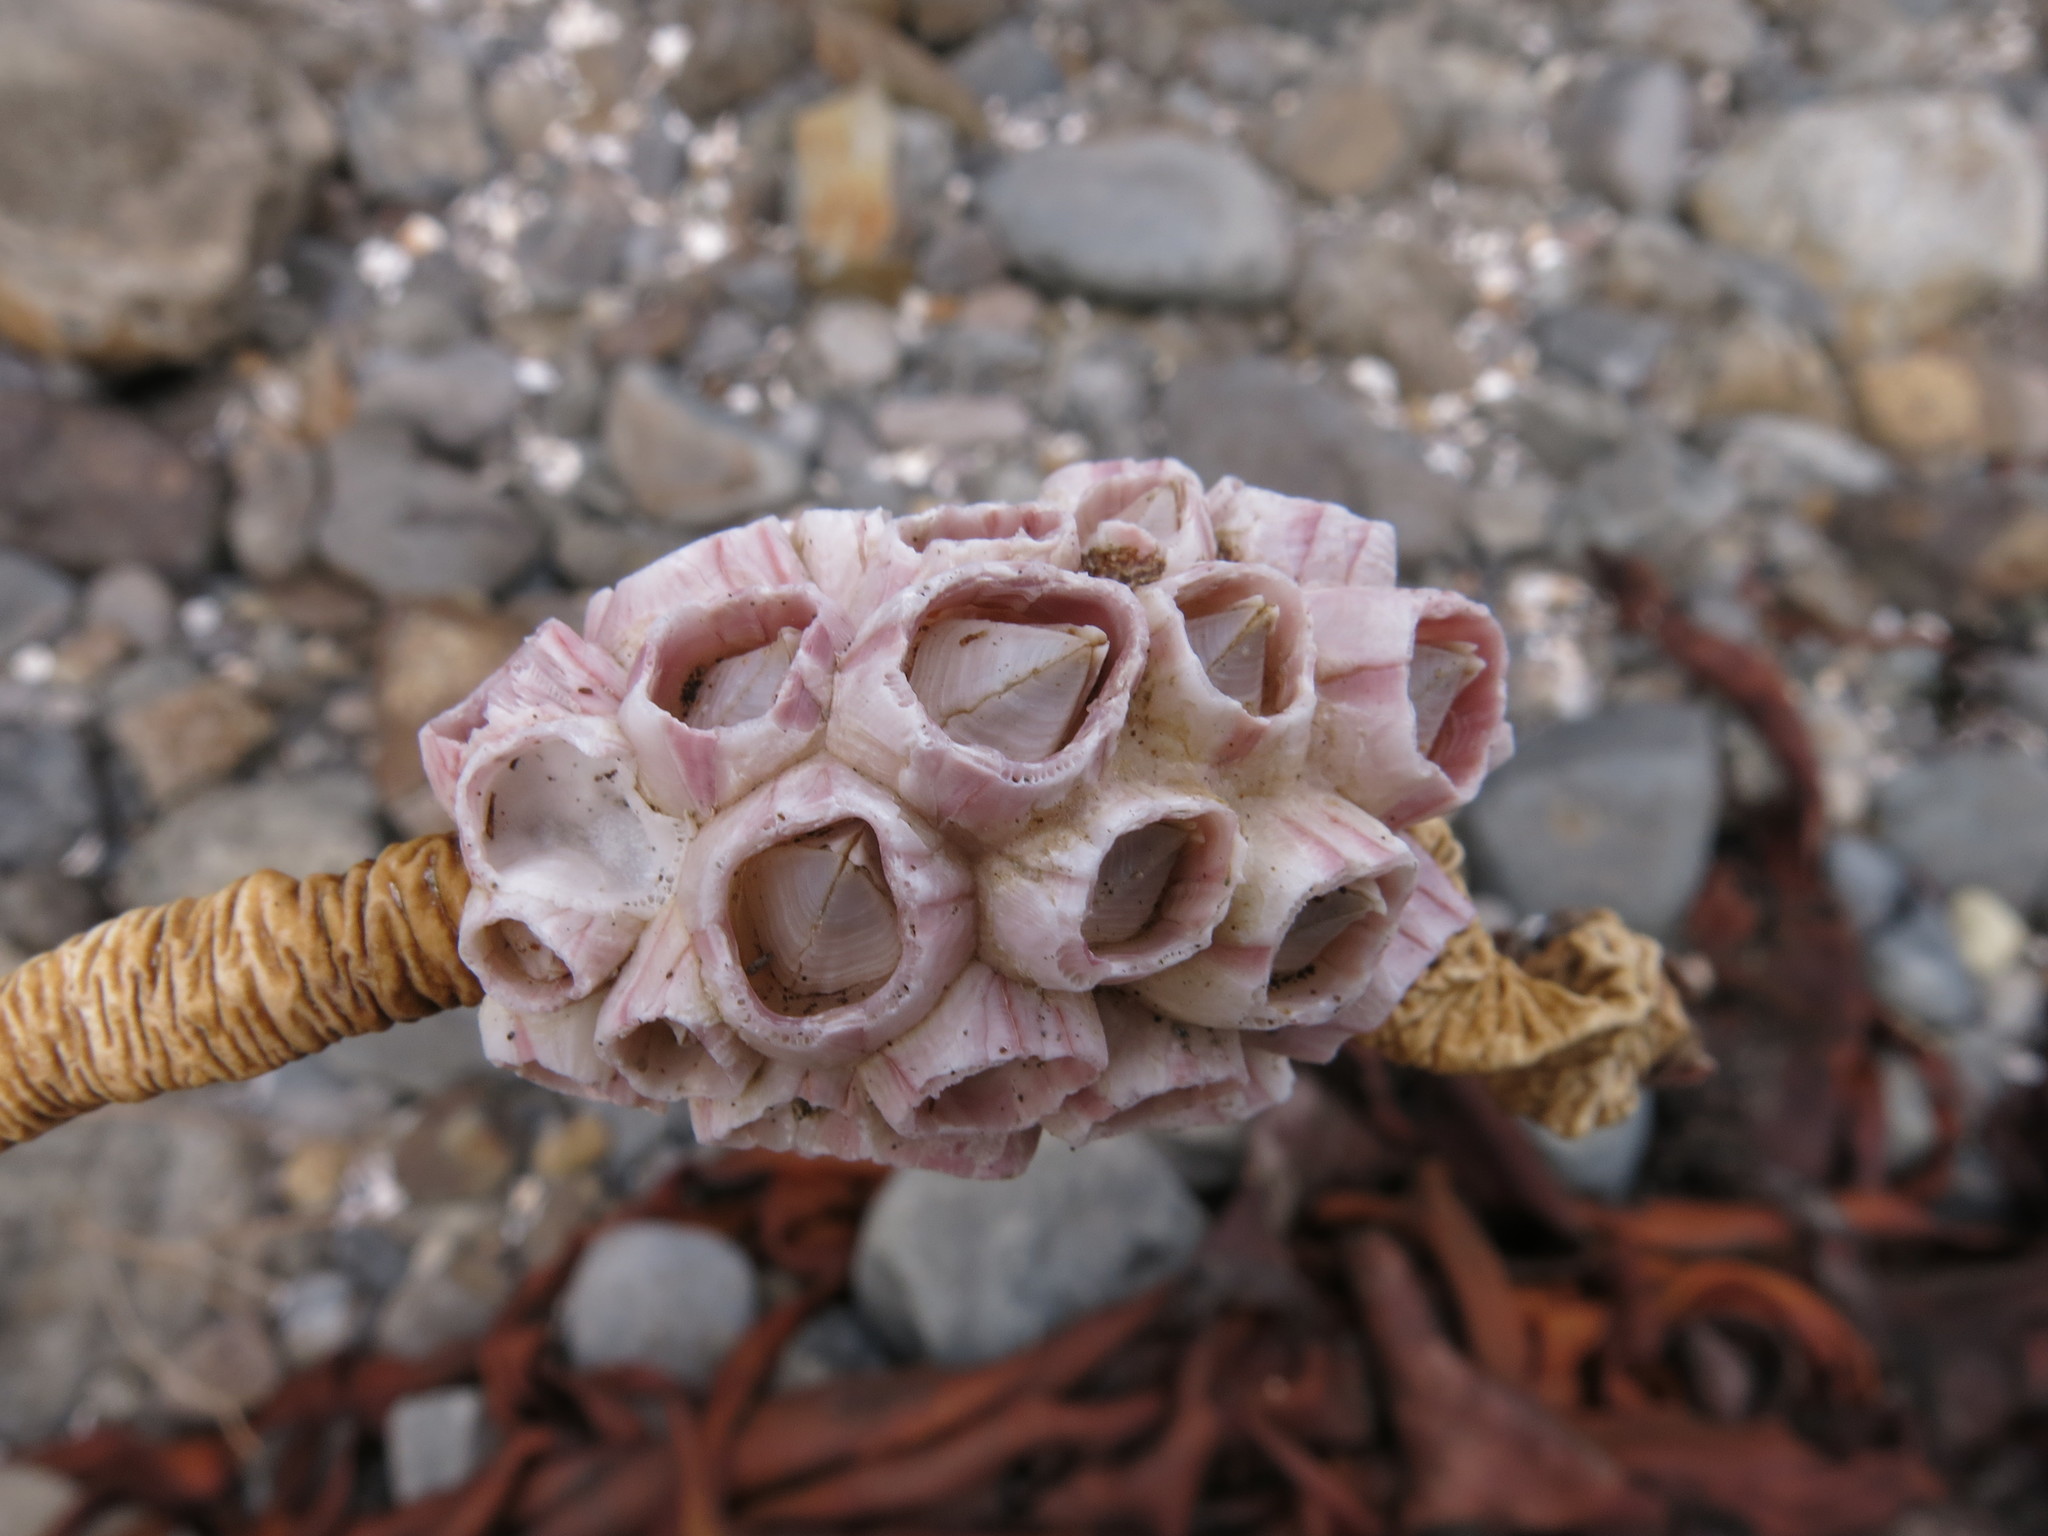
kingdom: Animalia
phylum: Arthropoda
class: Maxillopoda
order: Sessilia
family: Balanidae
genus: Notomegabalanus
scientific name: Notomegabalanus decorus
